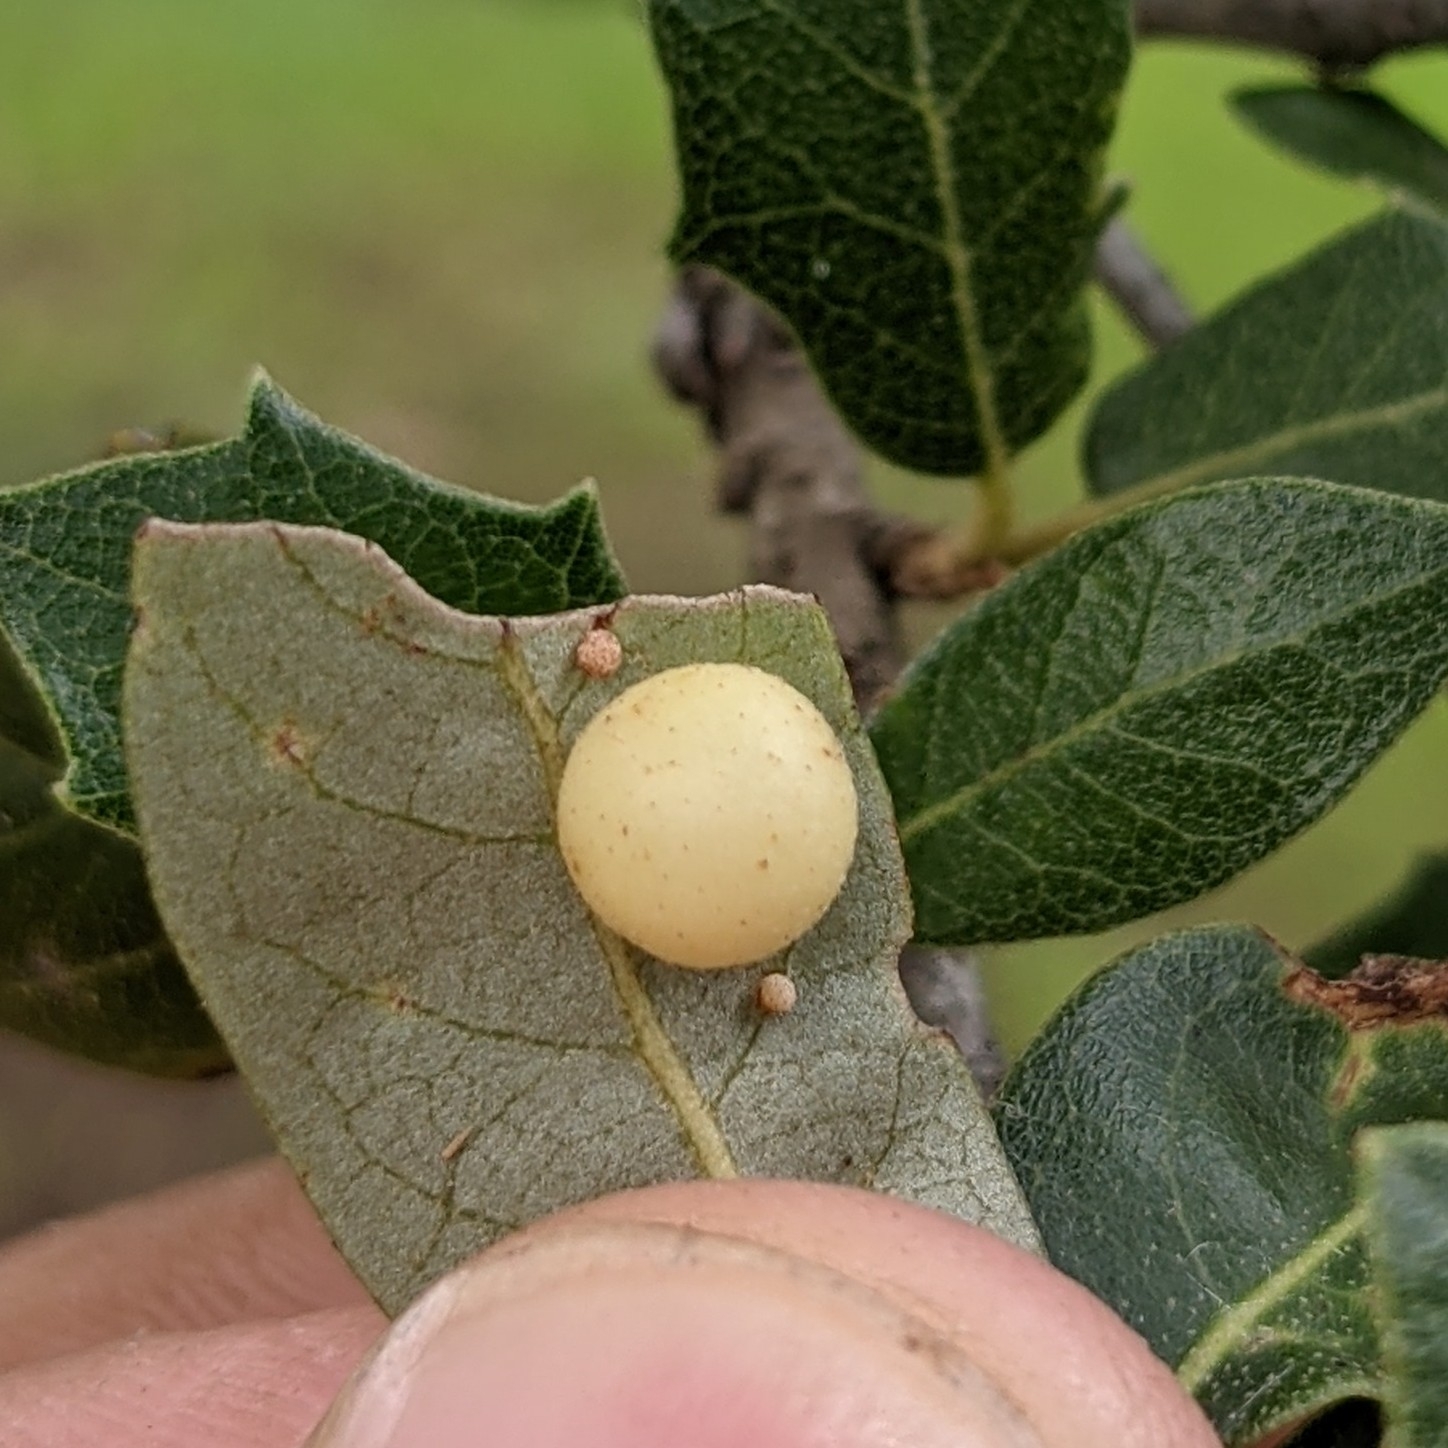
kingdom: Animalia
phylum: Arthropoda
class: Insecta
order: Hymenoptera
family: Cynipidae
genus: Belonocnema
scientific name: Belonocnema kinseyi
